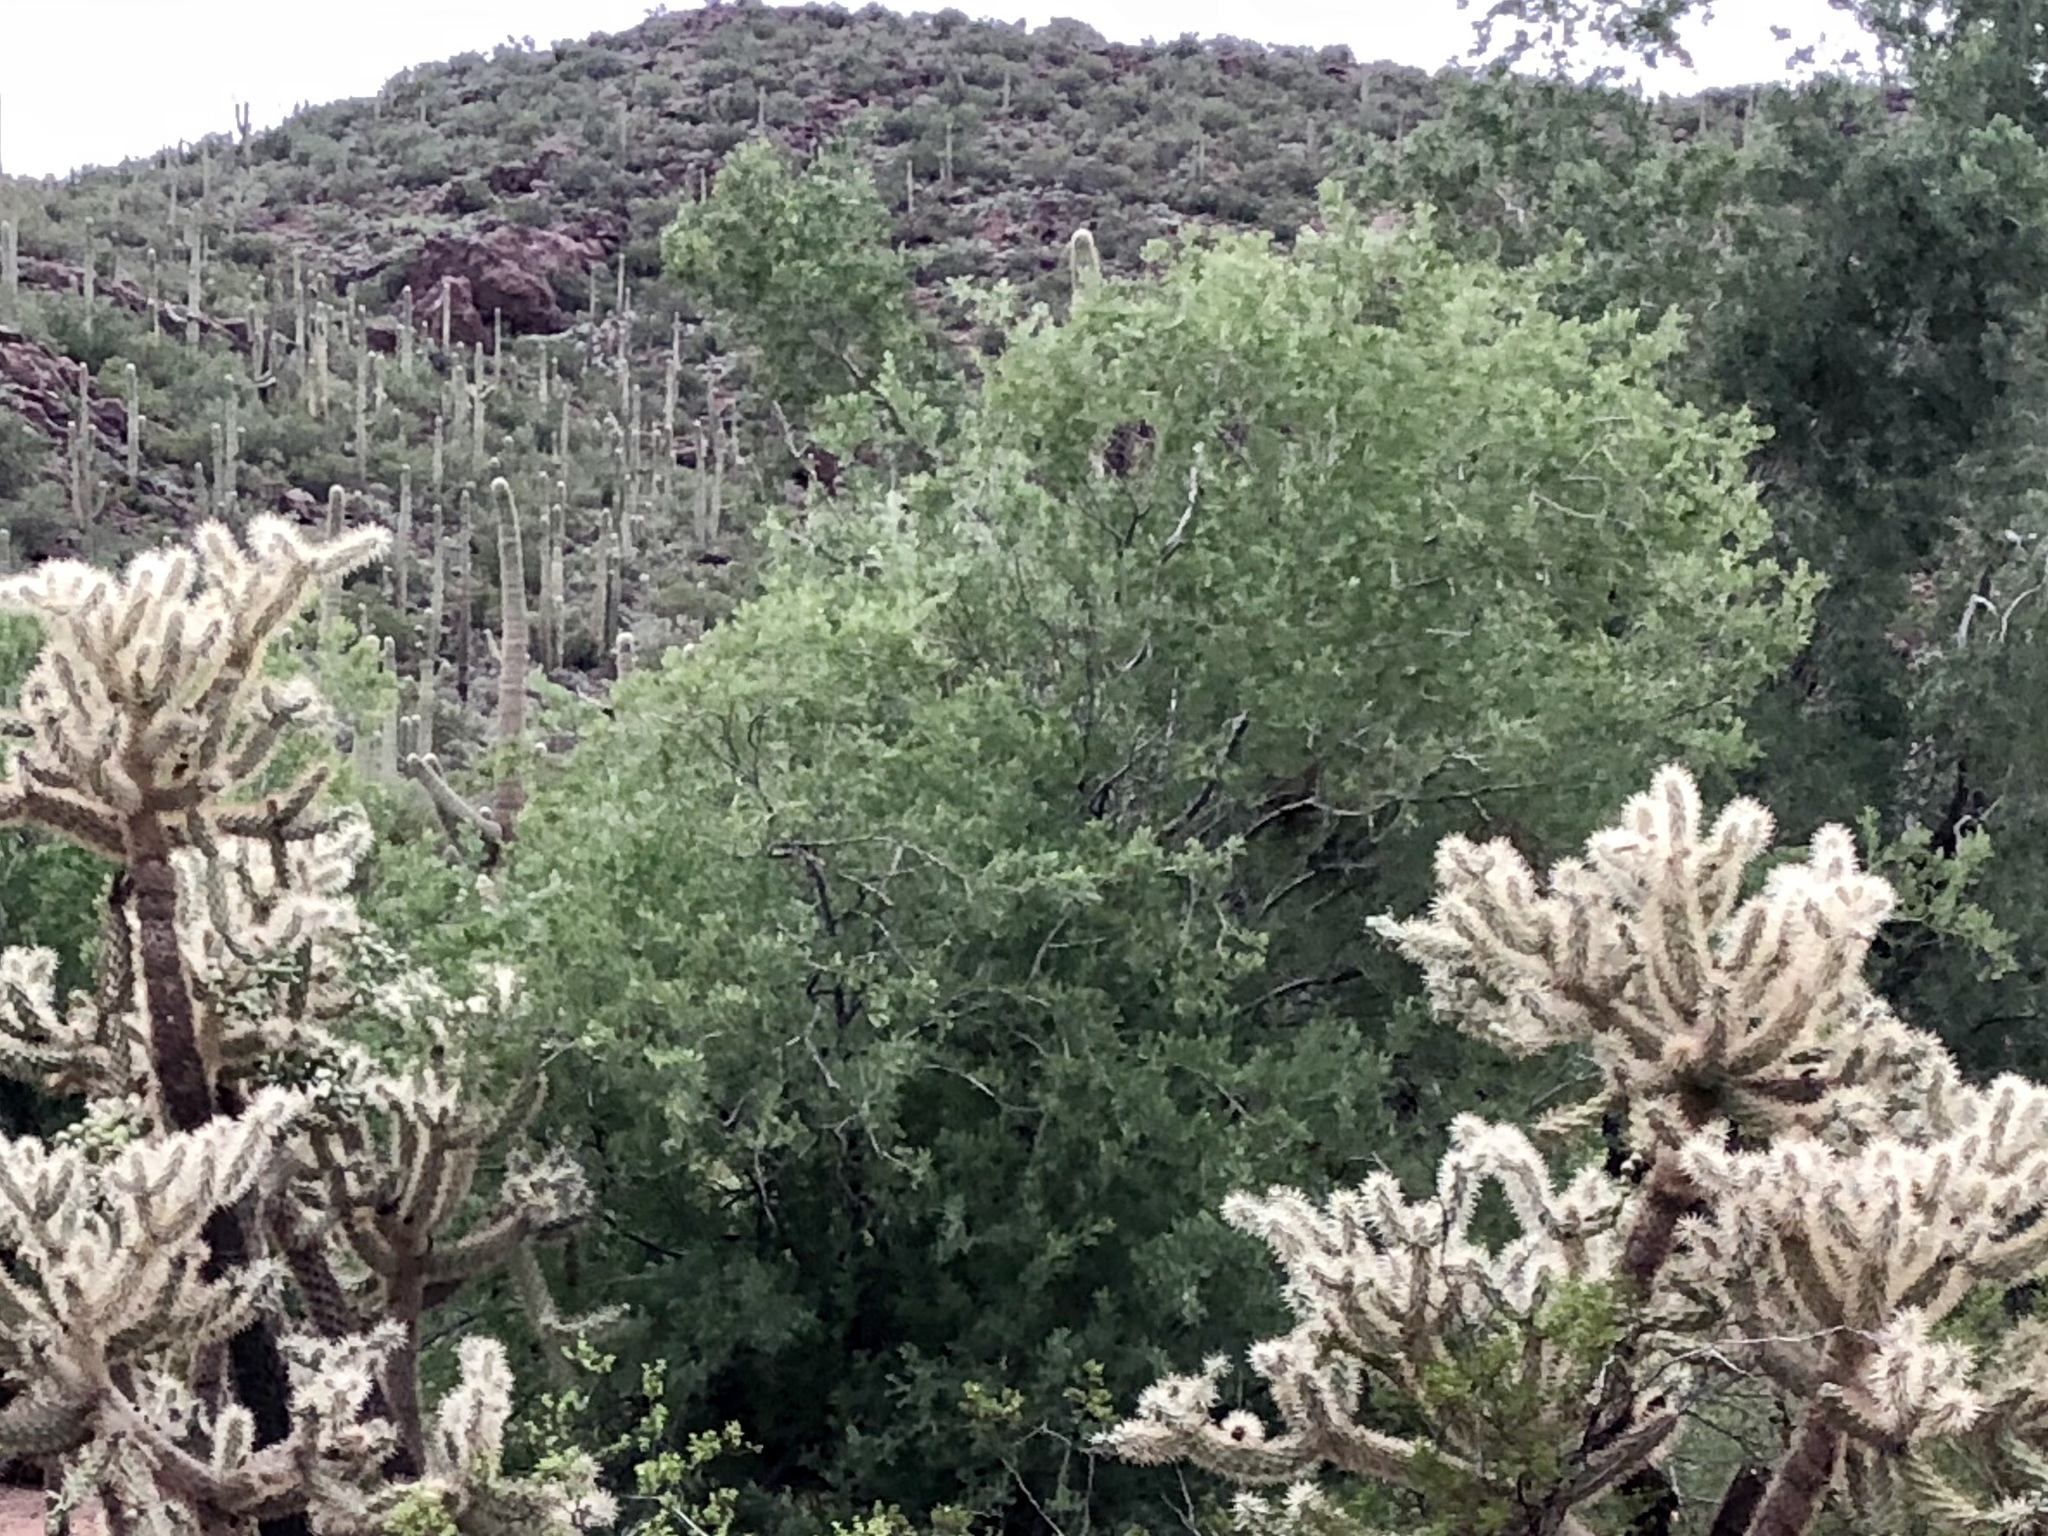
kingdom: Plantae
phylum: Tracheophyta
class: Magnoliopsida
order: Fabales
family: Fabaceae
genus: Olneya
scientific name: Olneya tesota
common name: Desert ironwood
